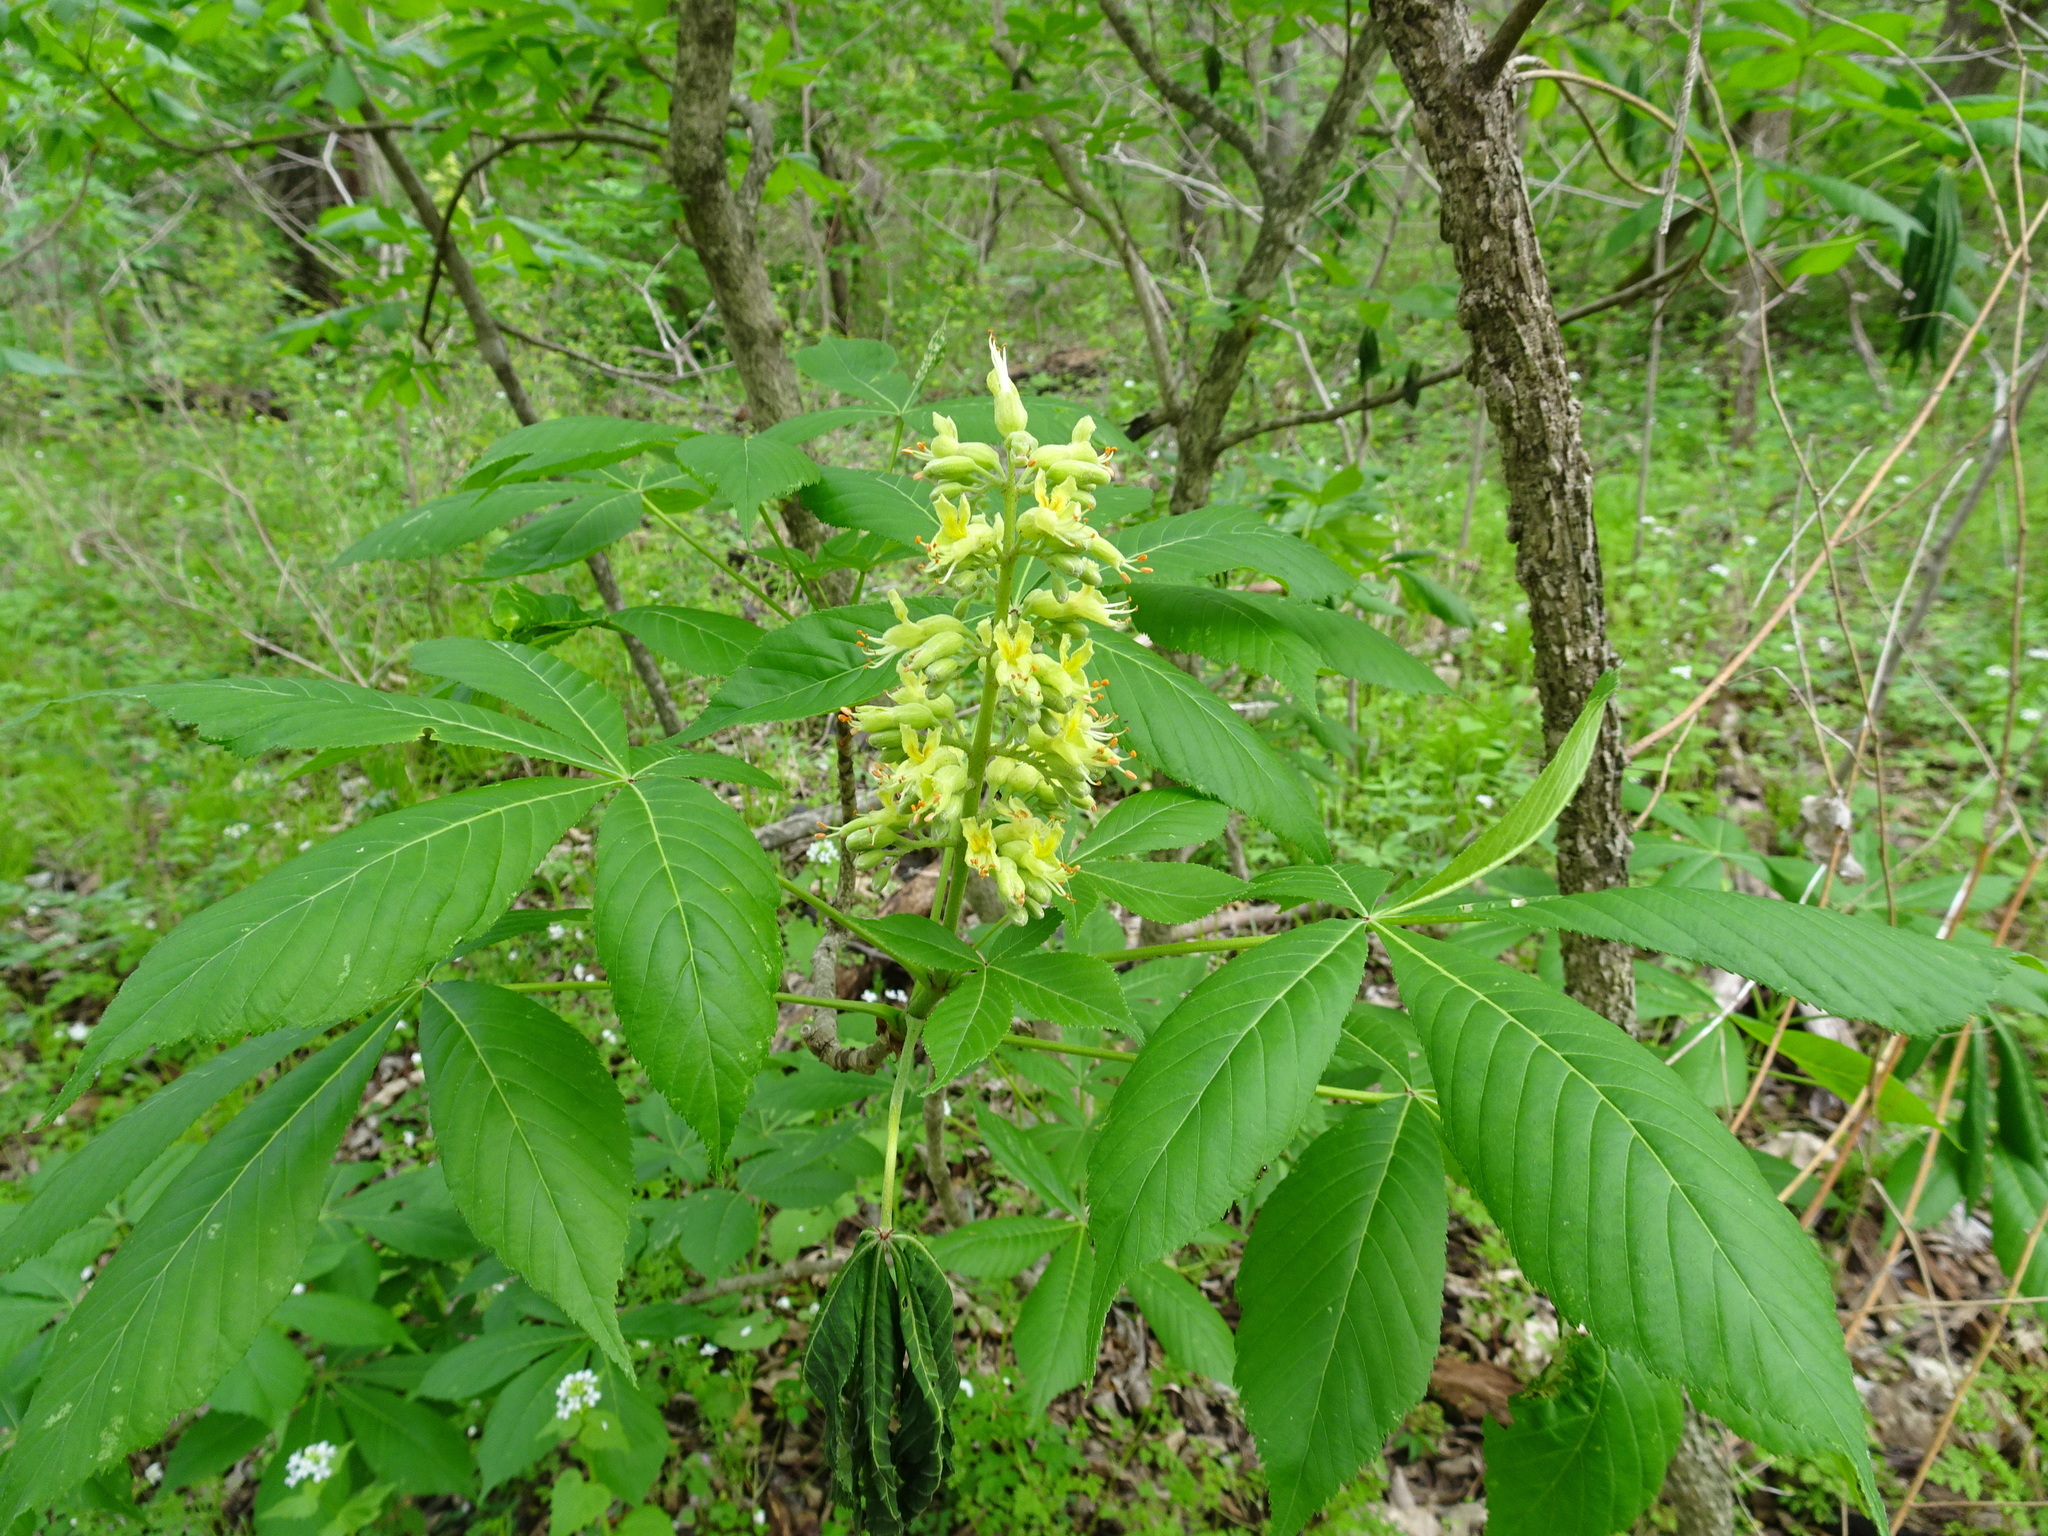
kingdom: Plantae
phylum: Tracheophyta
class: Magnoliopsida
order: Sapindales
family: Sapindaceae
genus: Aesculus
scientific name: Aesculus glabra
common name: Ohio buckeye
